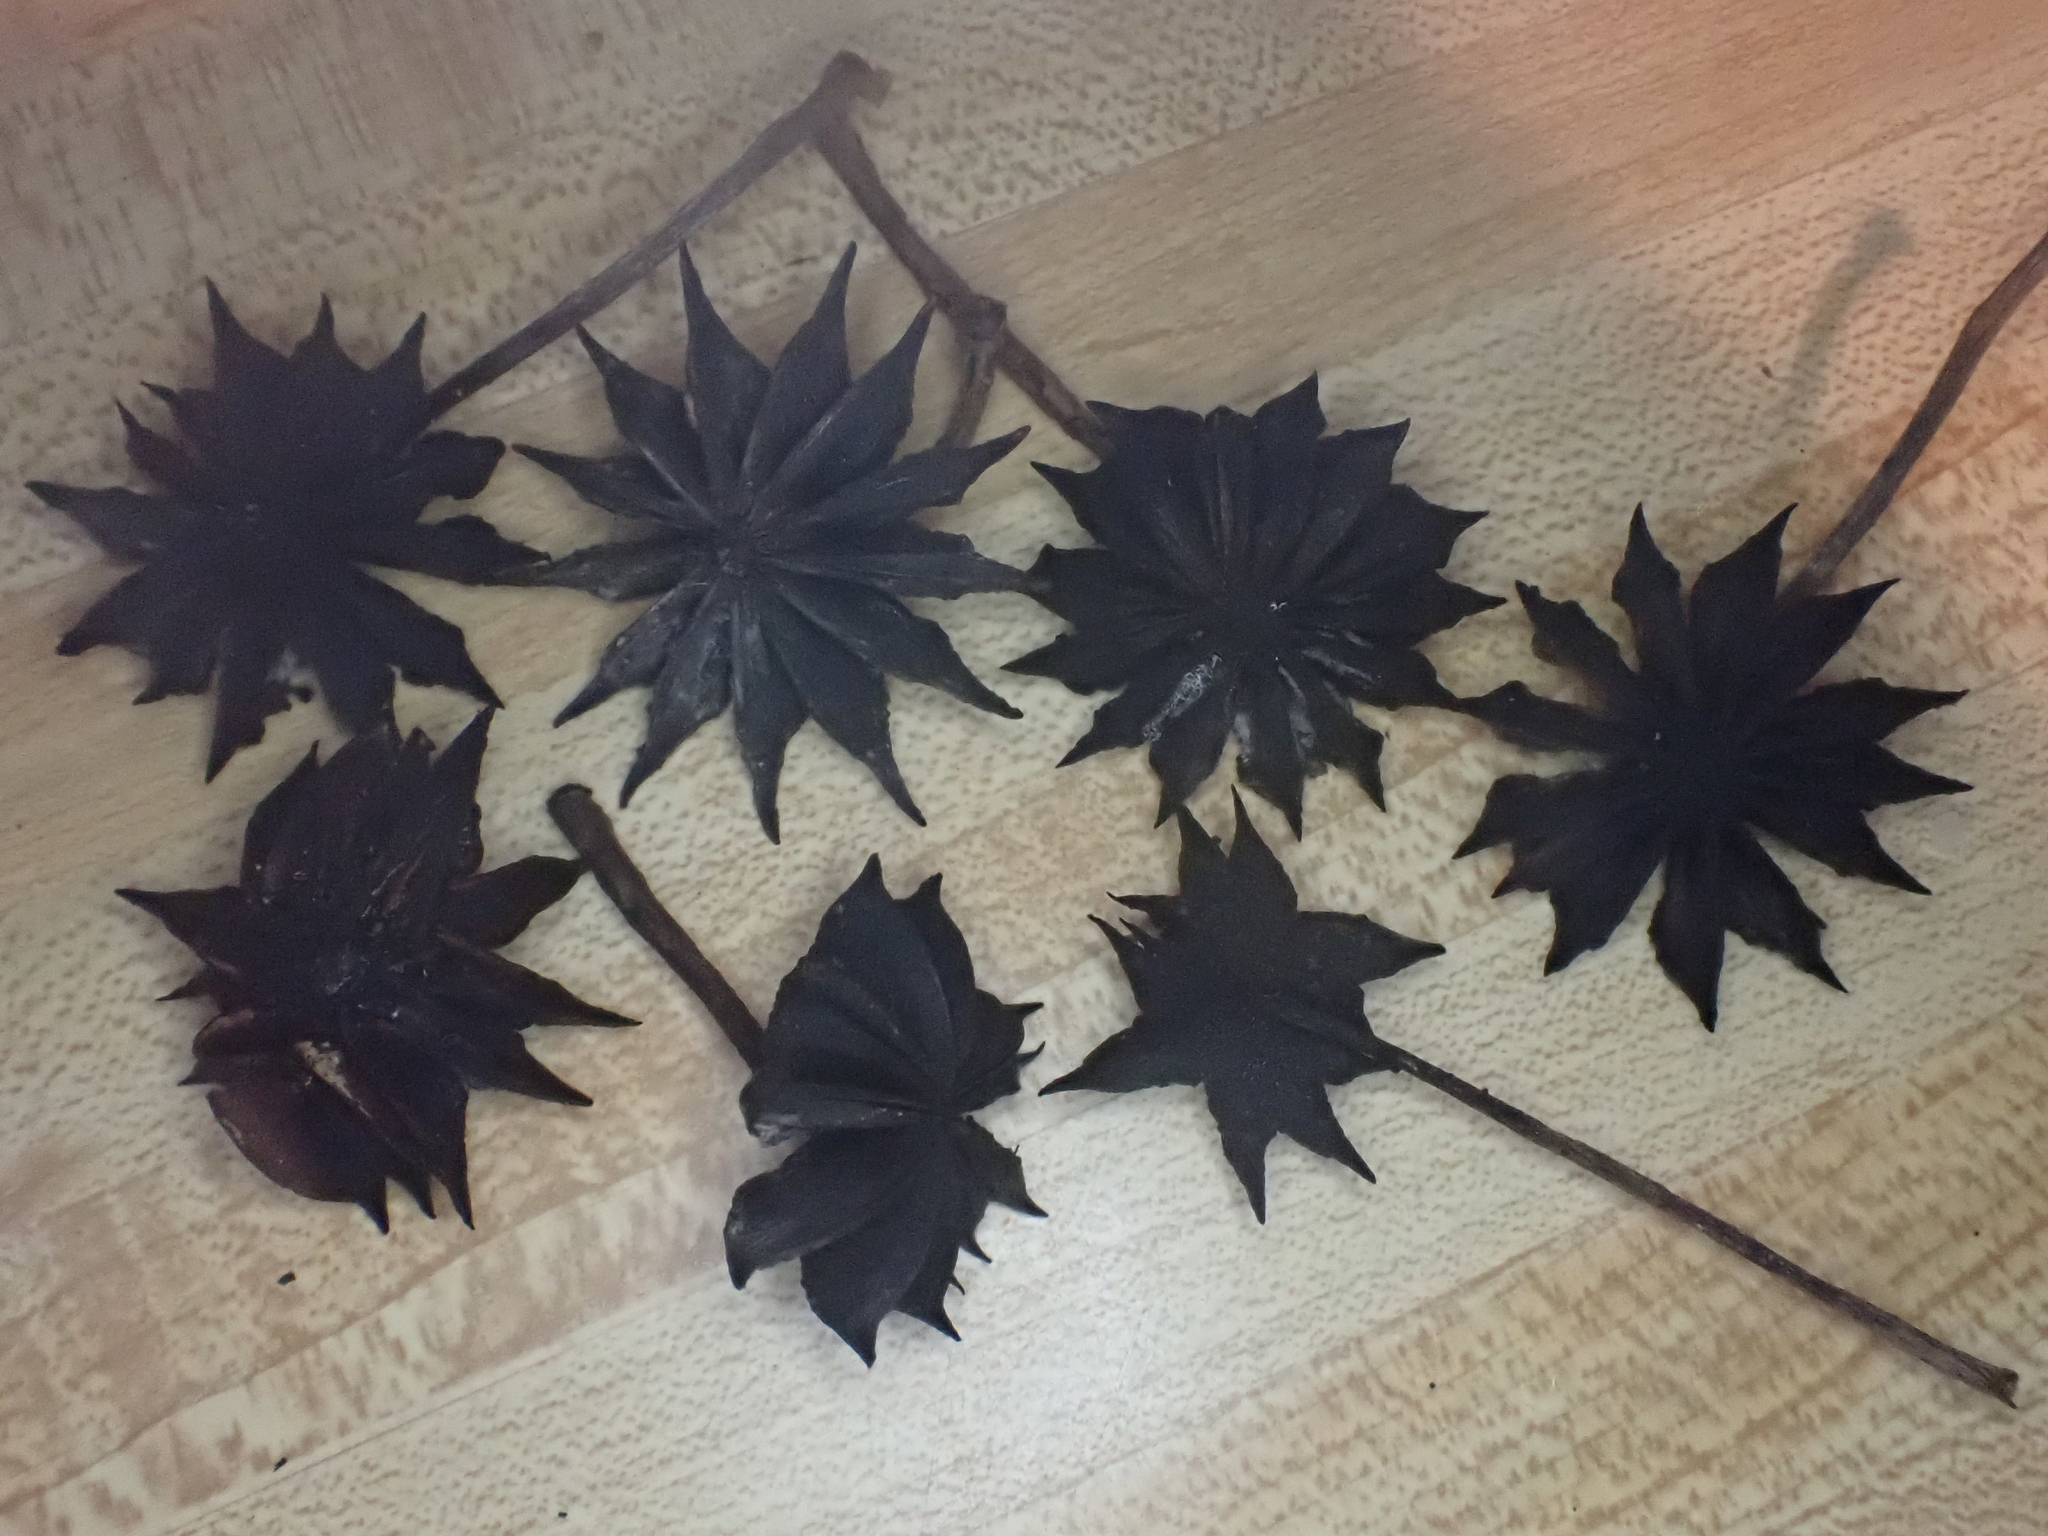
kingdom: Plantae
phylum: Tracheophyta
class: Magnoliopsida
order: Austrobaileyales
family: Schisandraceae
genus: Illicium
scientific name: Illicium floridanum
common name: Florida anisetree
